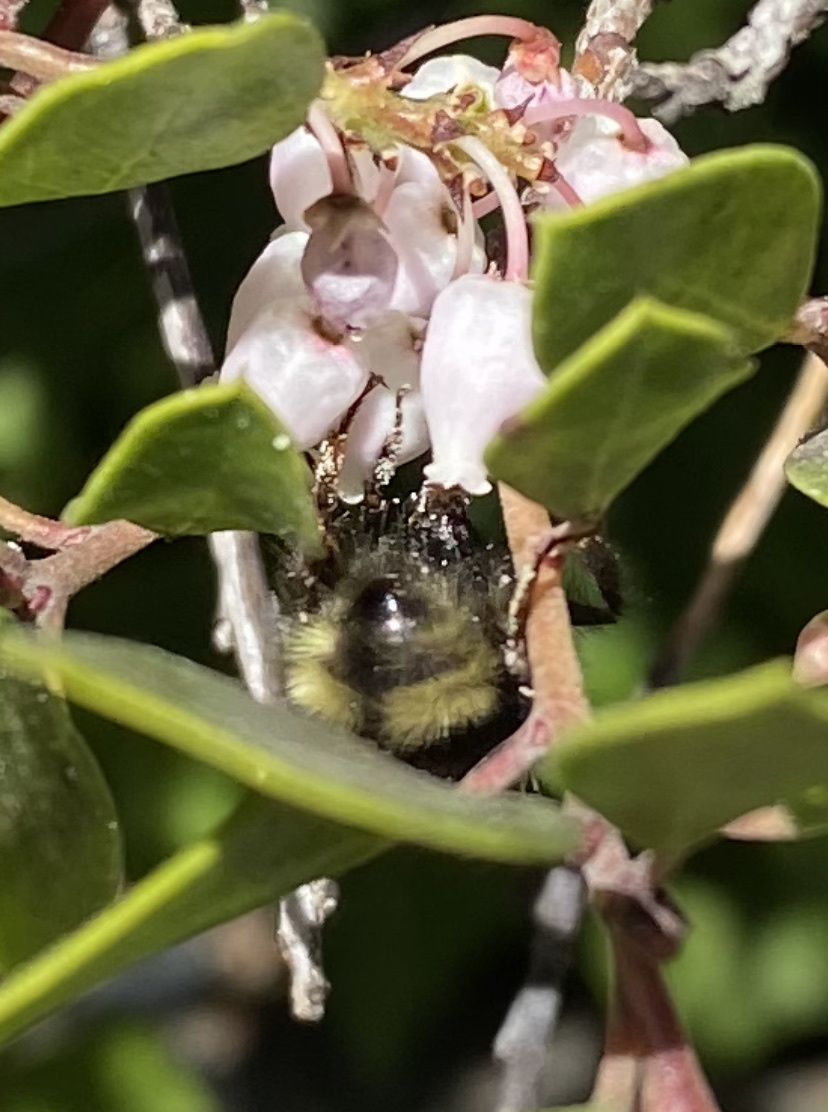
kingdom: Animalia
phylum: Arthropoda
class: Insecta
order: Hymenoptera
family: Apidae
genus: Bombus
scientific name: Bombus melanopygus
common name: Black tail bumble bee
